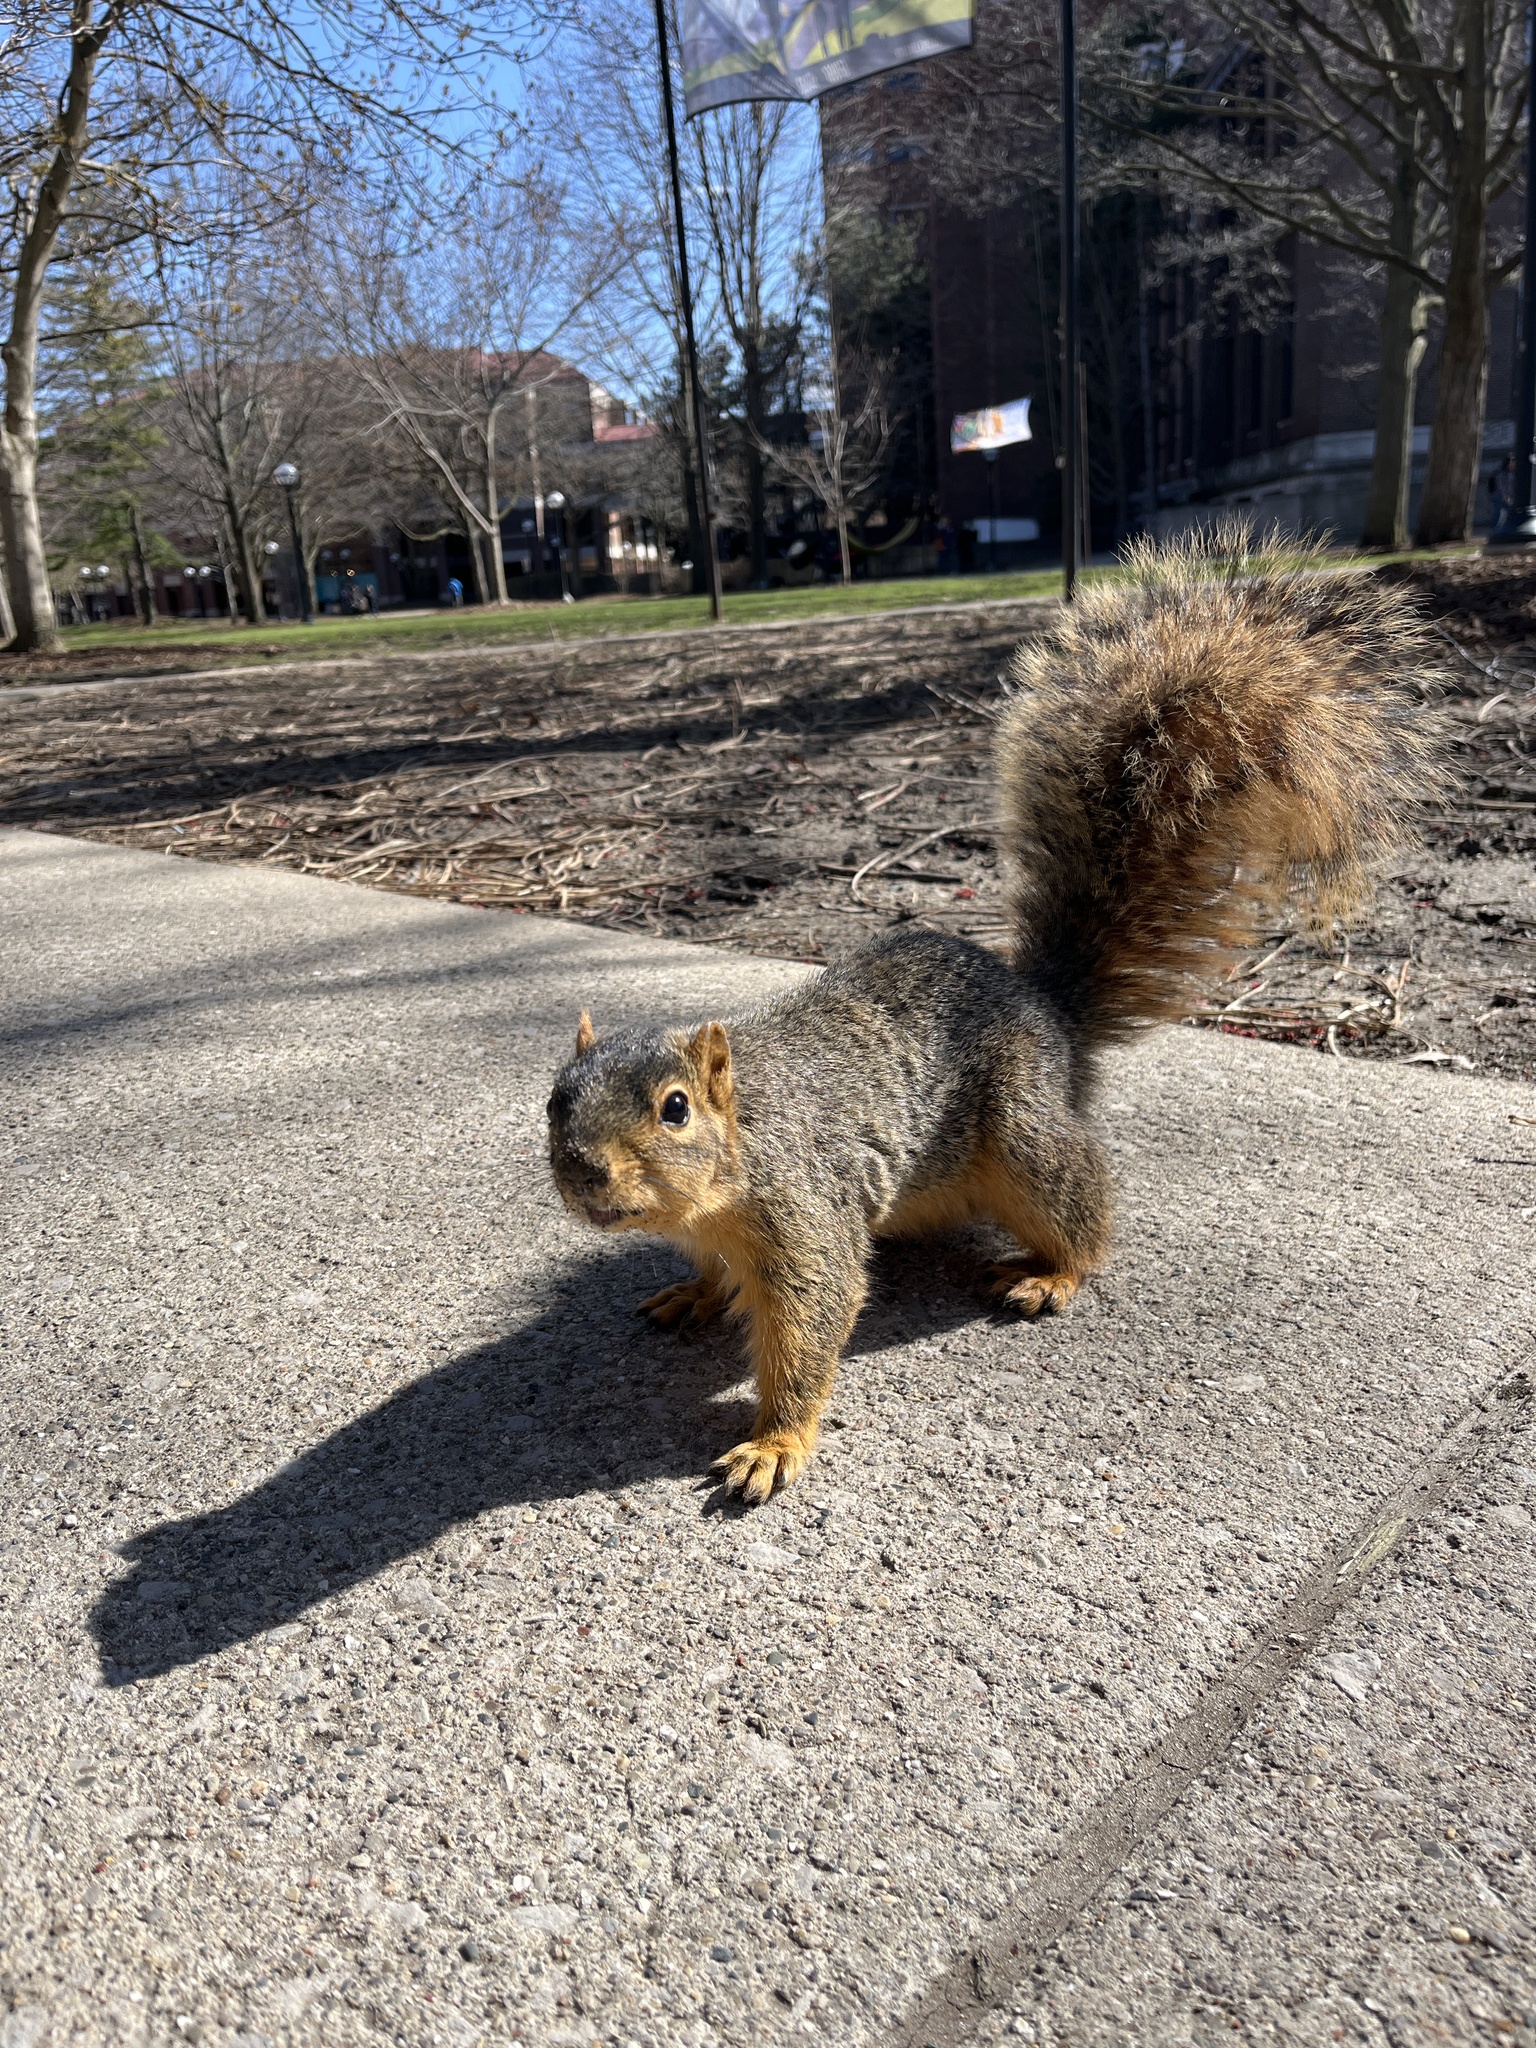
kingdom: Animalia
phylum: Chordata
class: Mammalia
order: Rodentia
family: Sciuridae
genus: Sciurus
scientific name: Sciurus niger
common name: Fox squirrel
